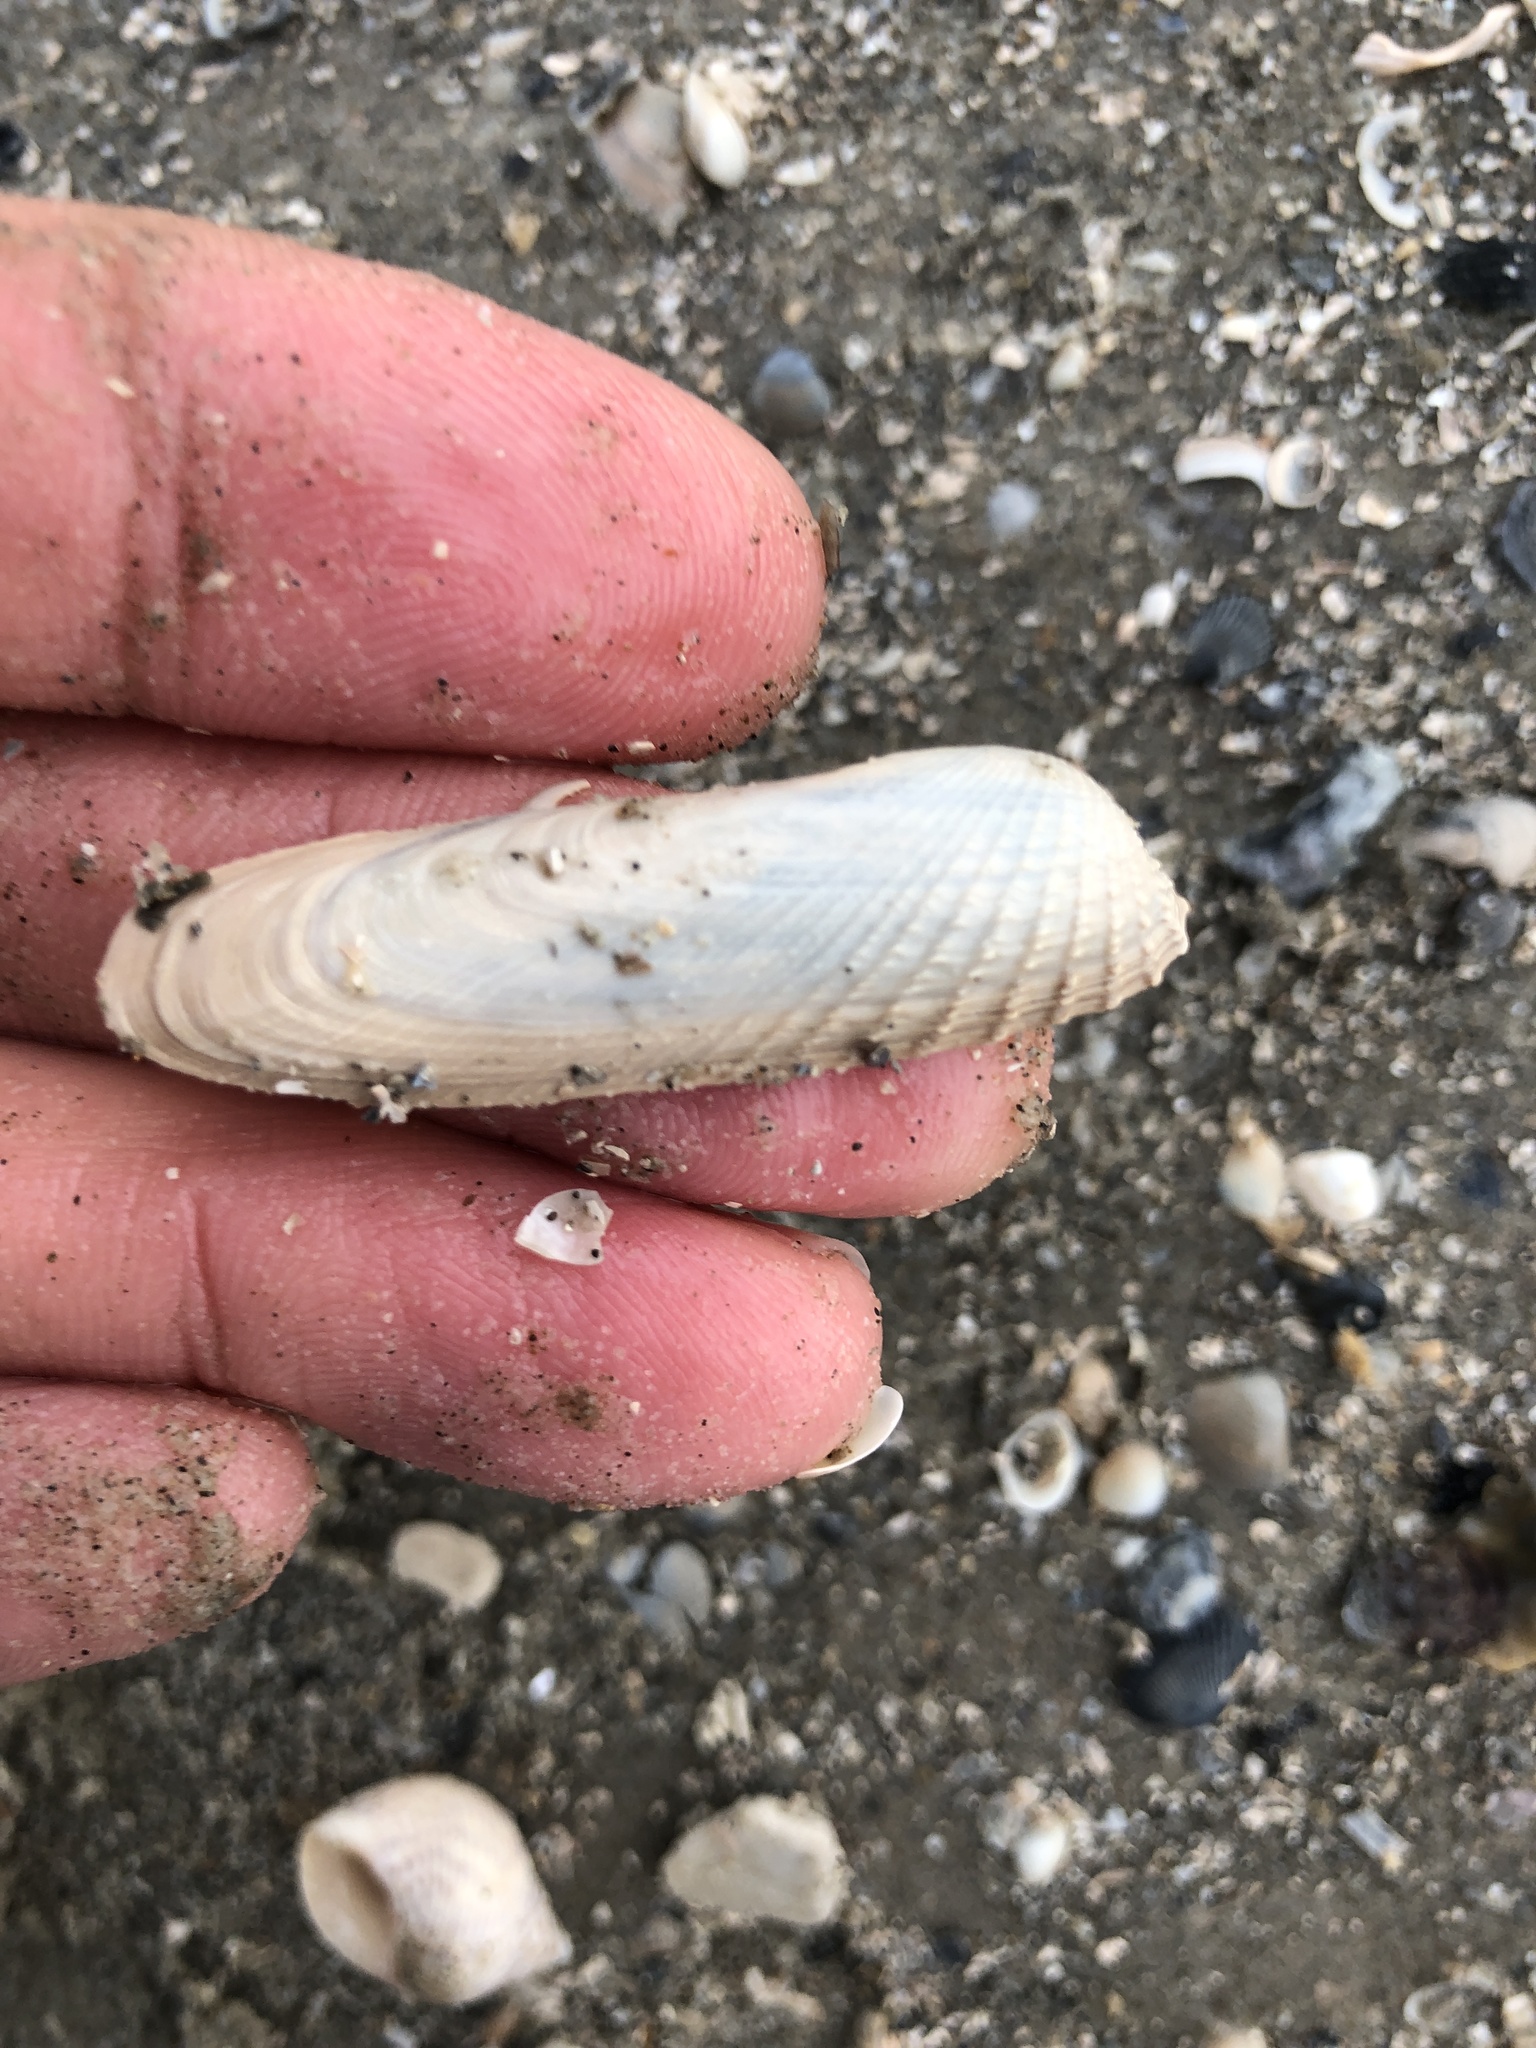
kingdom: Animalia
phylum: Mollusca
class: Bivalvia
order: Venerida
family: Veneridae
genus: Petricolaria
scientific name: Petricolaria pholadiformis
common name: American piddock
